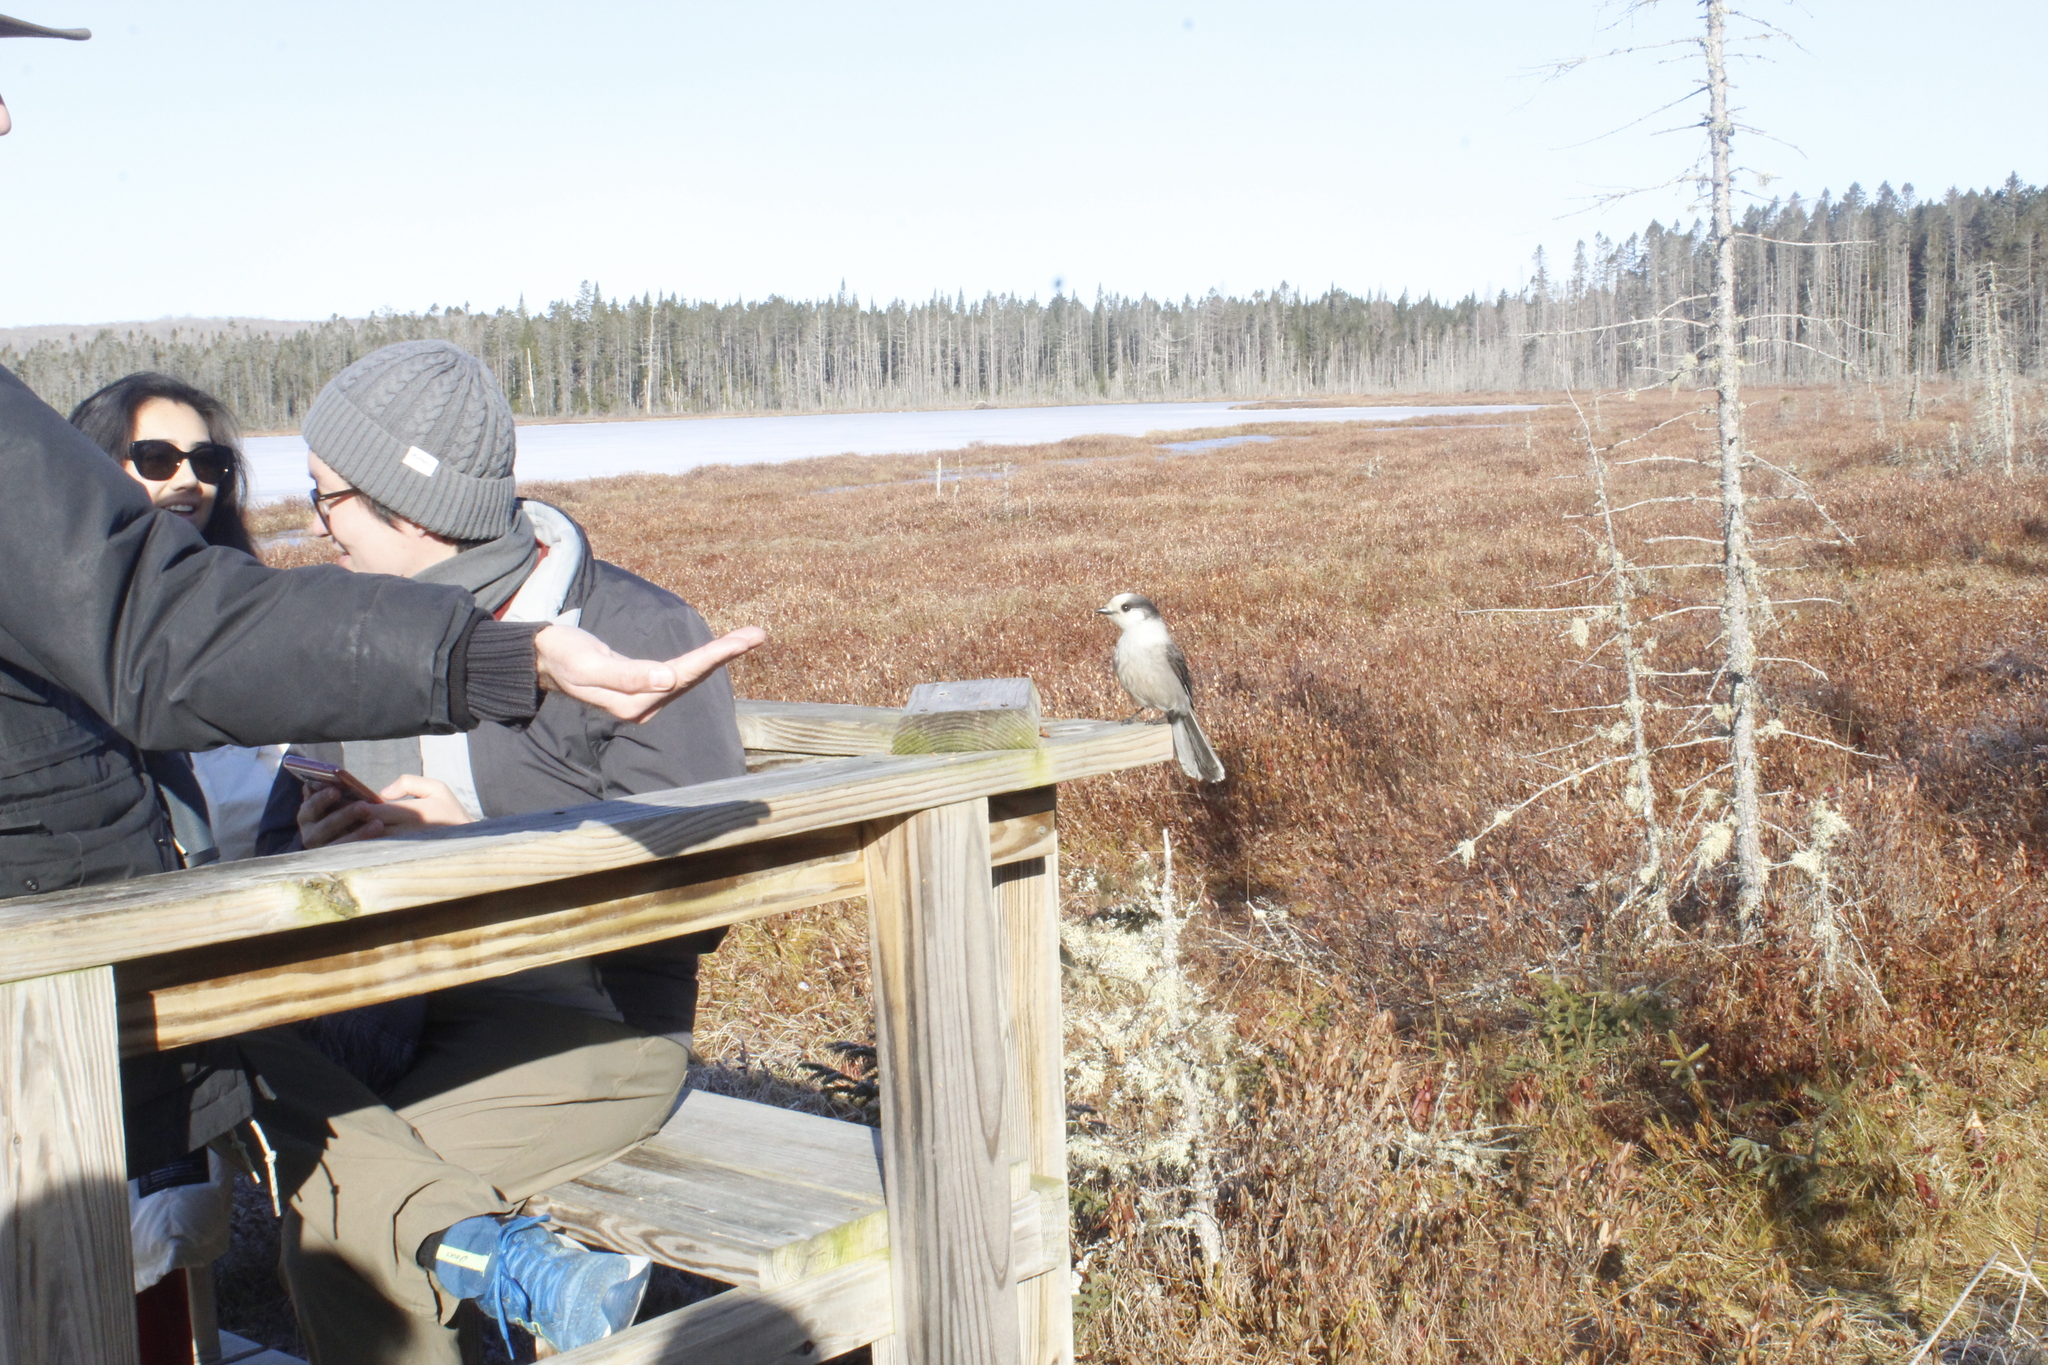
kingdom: Animalia
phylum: Chordata
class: Aves
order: Passeriformes
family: Corvidae
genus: Perisoreus
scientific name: Perisoreus canadensis
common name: Gray jay
